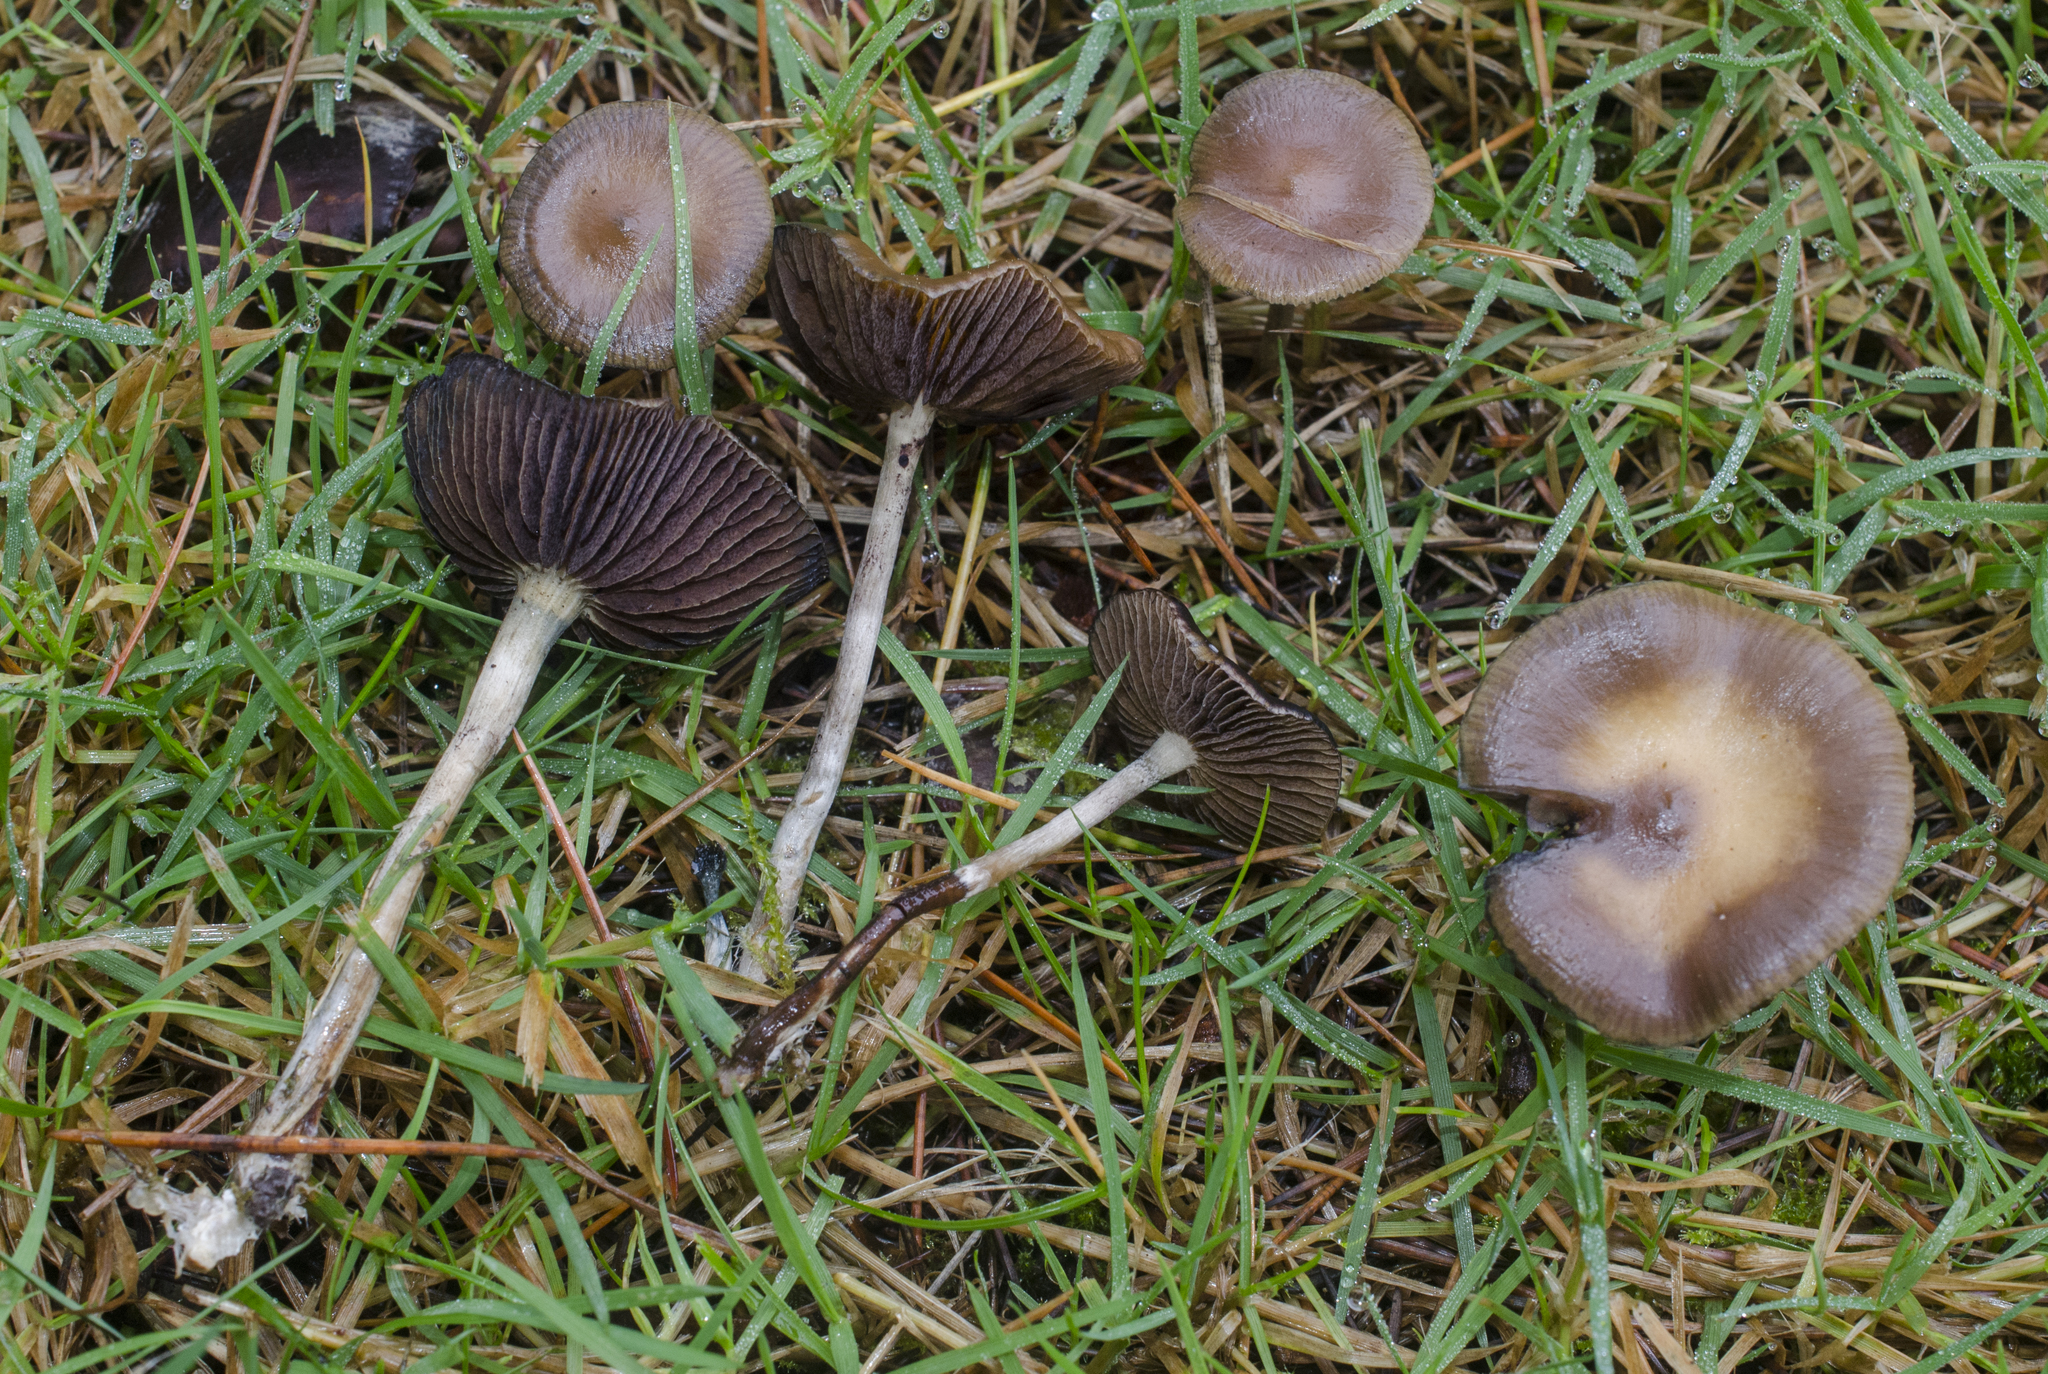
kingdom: Fungi
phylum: Basidiomycota
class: Agaricomycetes
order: Agaricales
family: Hymenogastraceae
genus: Psilocybe
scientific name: Psilocybe cyanescens
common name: Blueleg brownie
